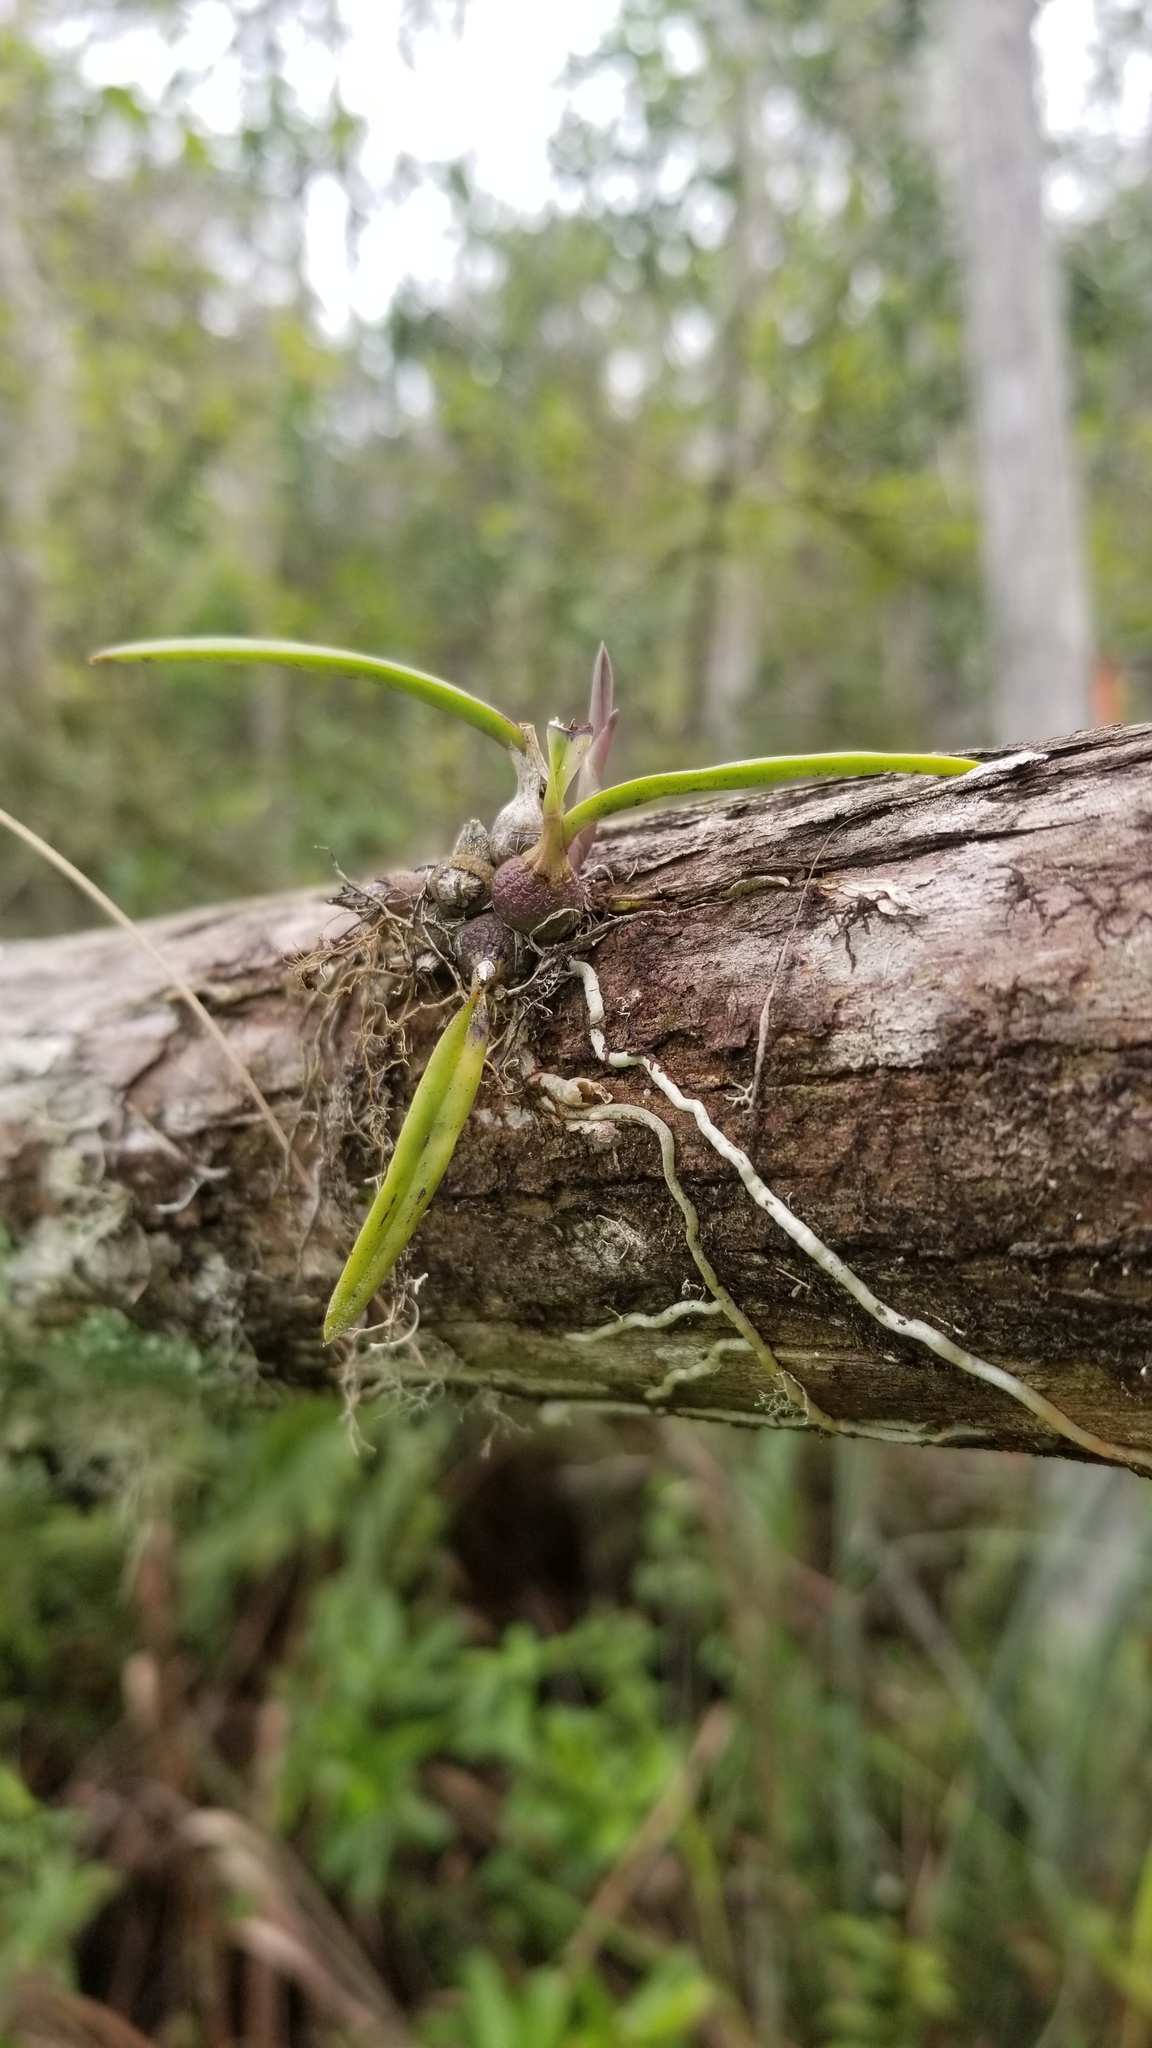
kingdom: Plantae
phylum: Tracheophyta
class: Liliopsida
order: Asparagales
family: Orchidaceae
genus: Encyclia
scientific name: Encyclia tampensis
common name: Florida butterfly orchid
